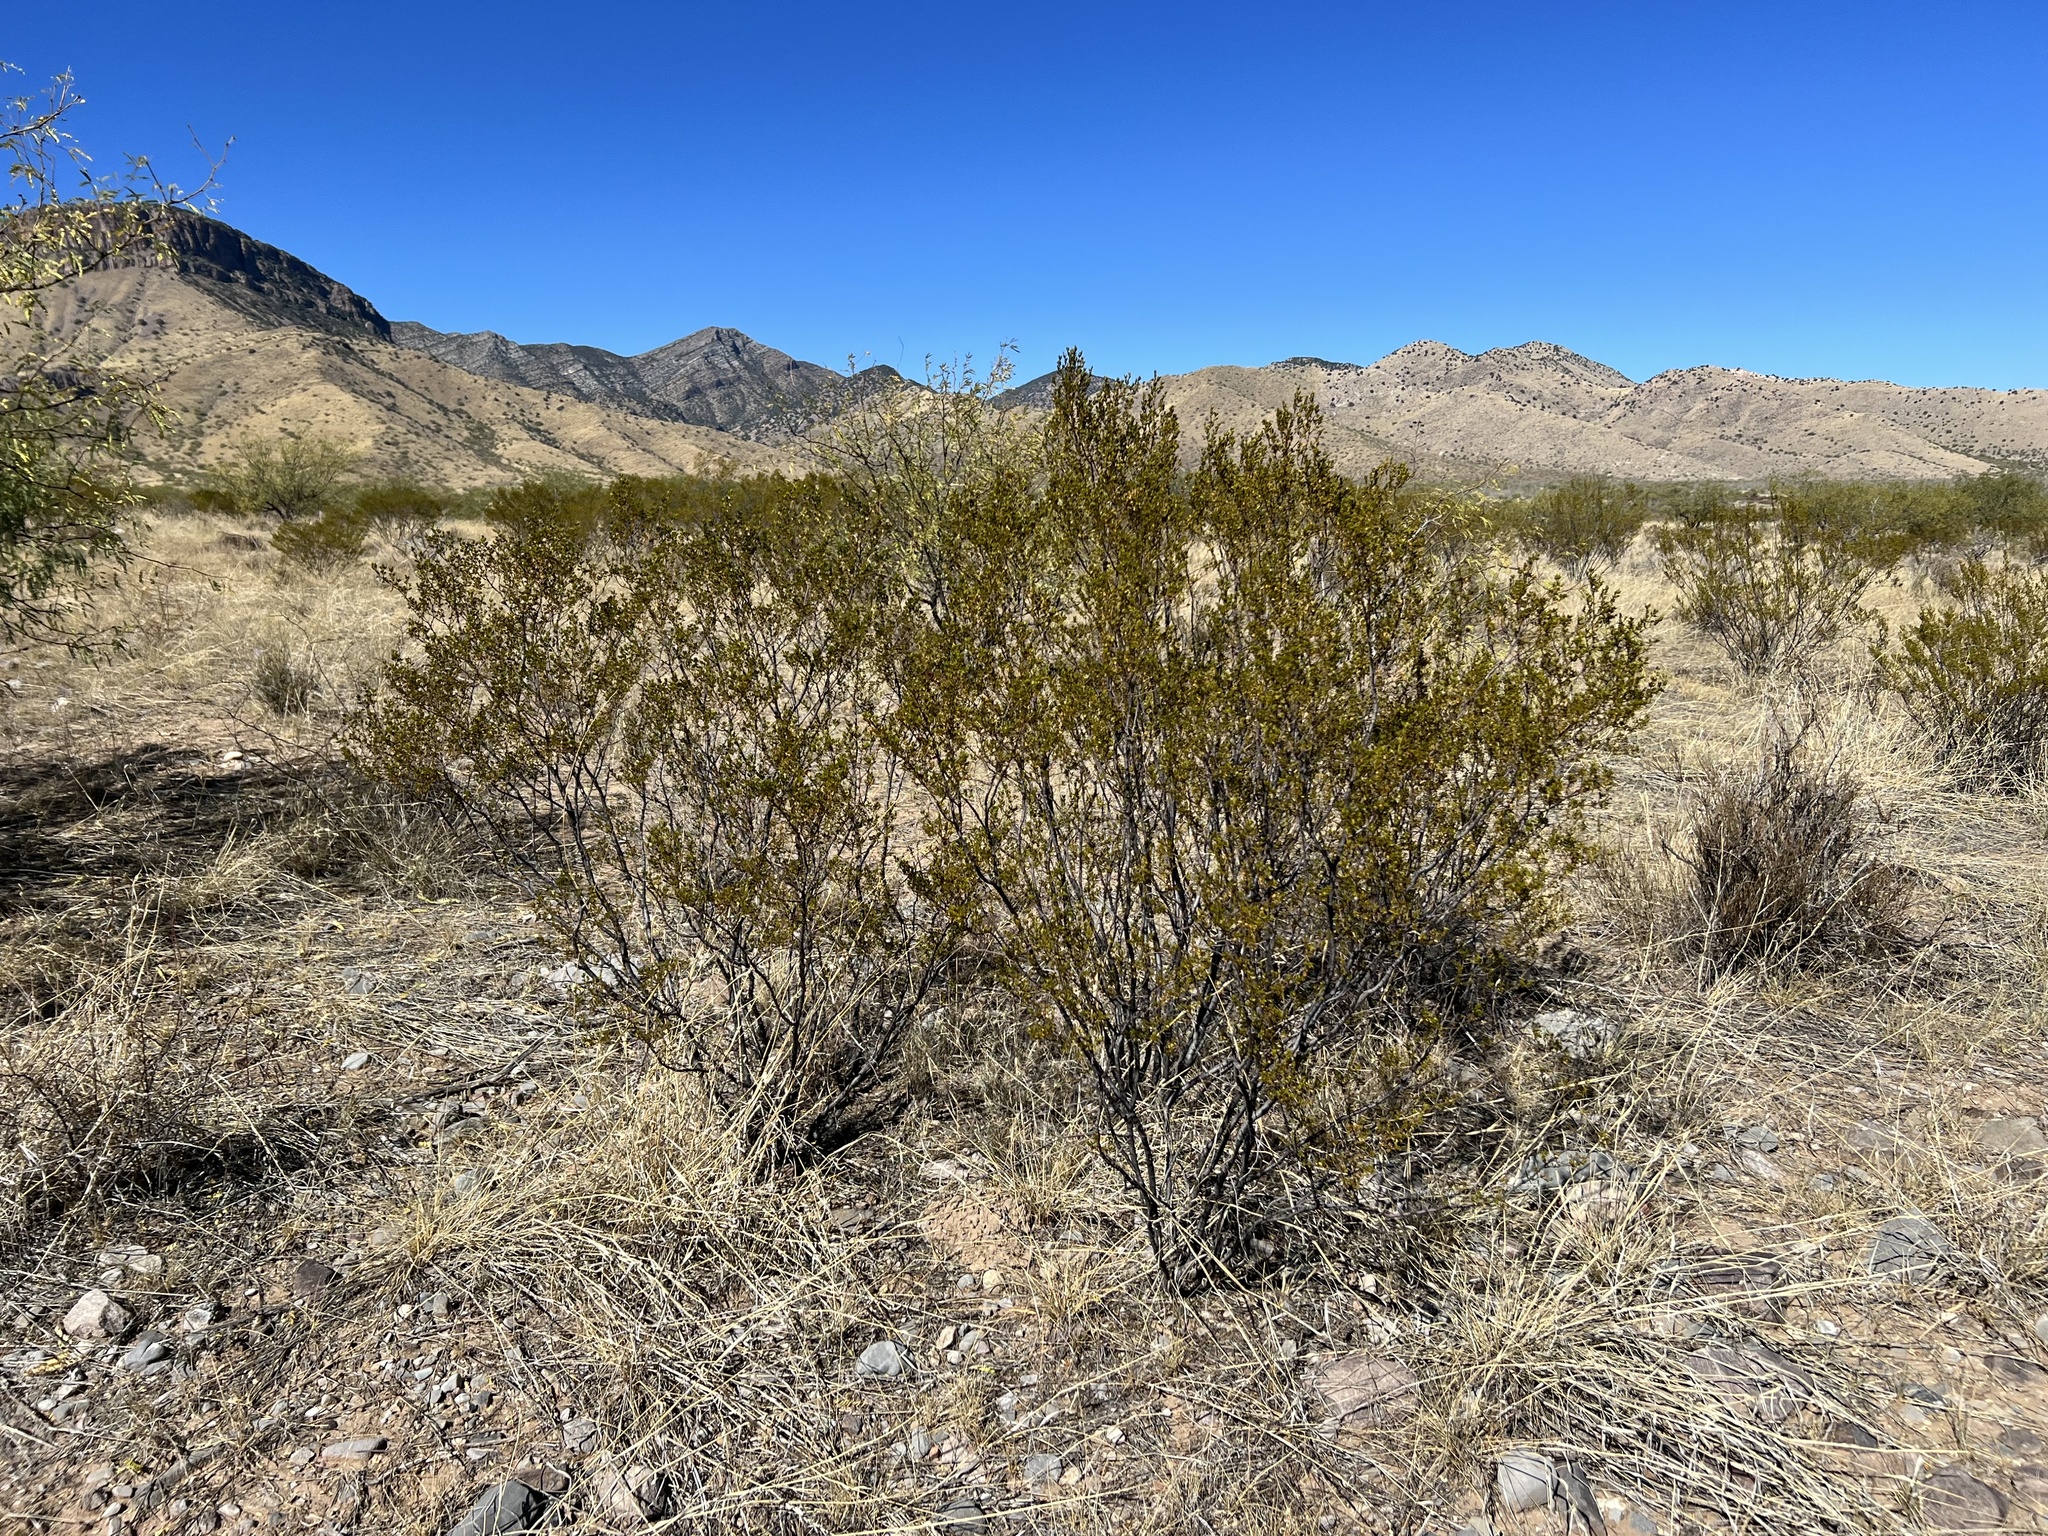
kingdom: Plantae
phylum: Tracheophyta
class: Magnoliopsida
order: Zygophyllales
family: Zygophyllaceae
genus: Larrea
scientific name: Larrea tridentata
